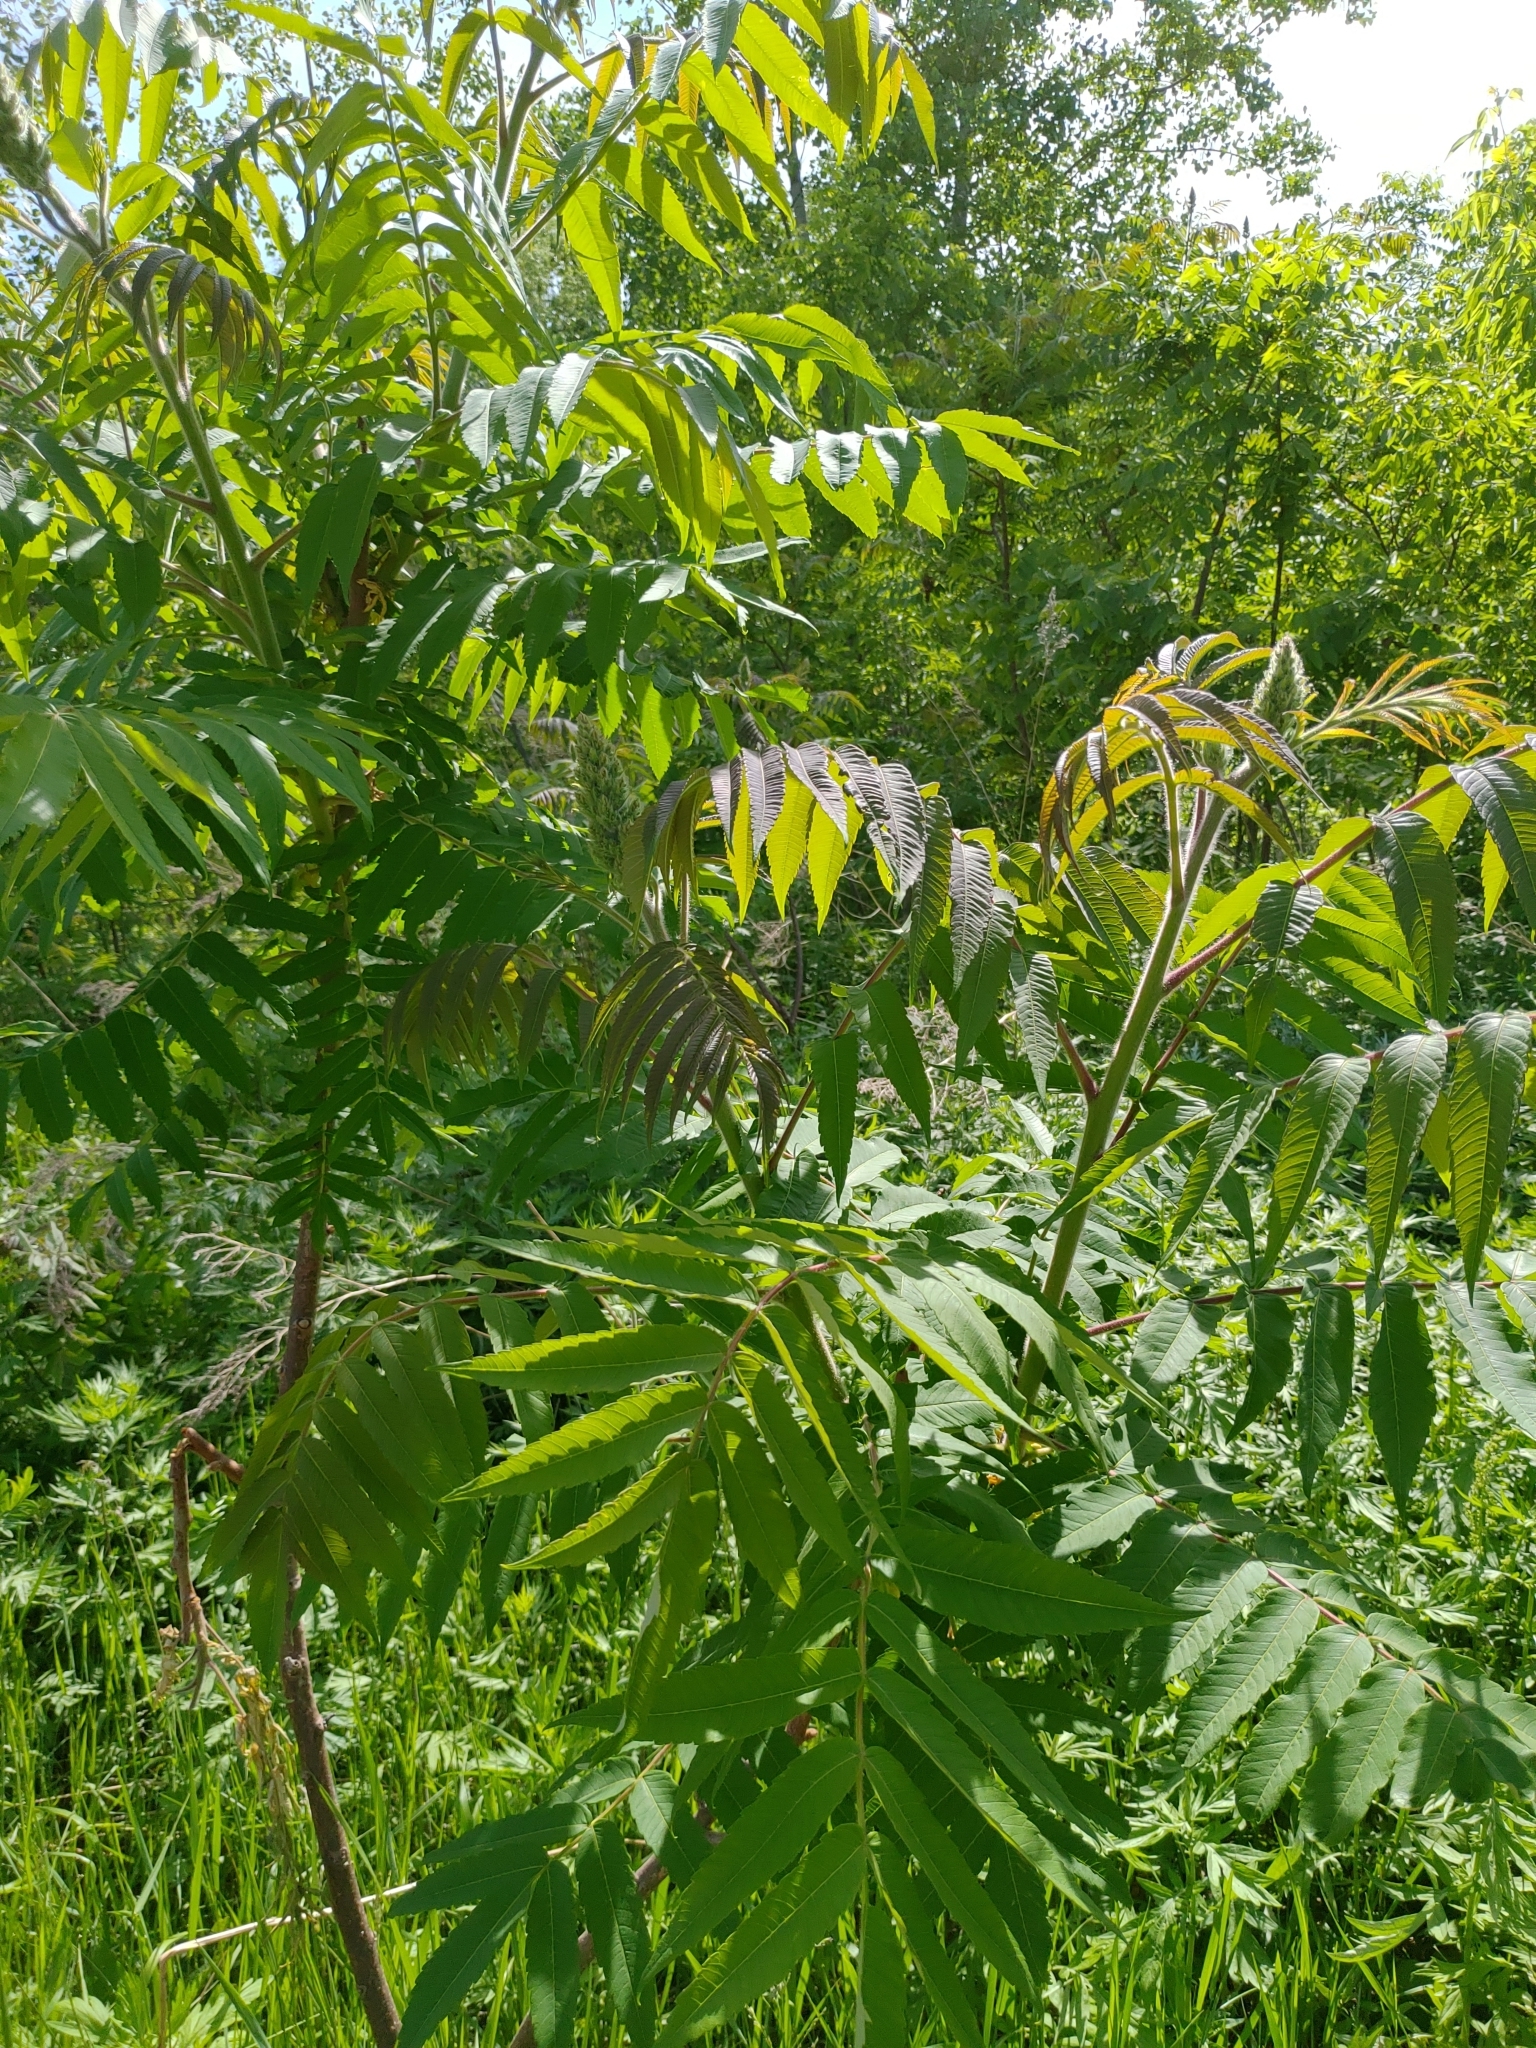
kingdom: Plantae
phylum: Tracheophyta
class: Magnoliopsida
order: Sapindales
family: Anacardiaceae
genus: Rhus
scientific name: Rhus typhina
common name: Staghorn sumac
